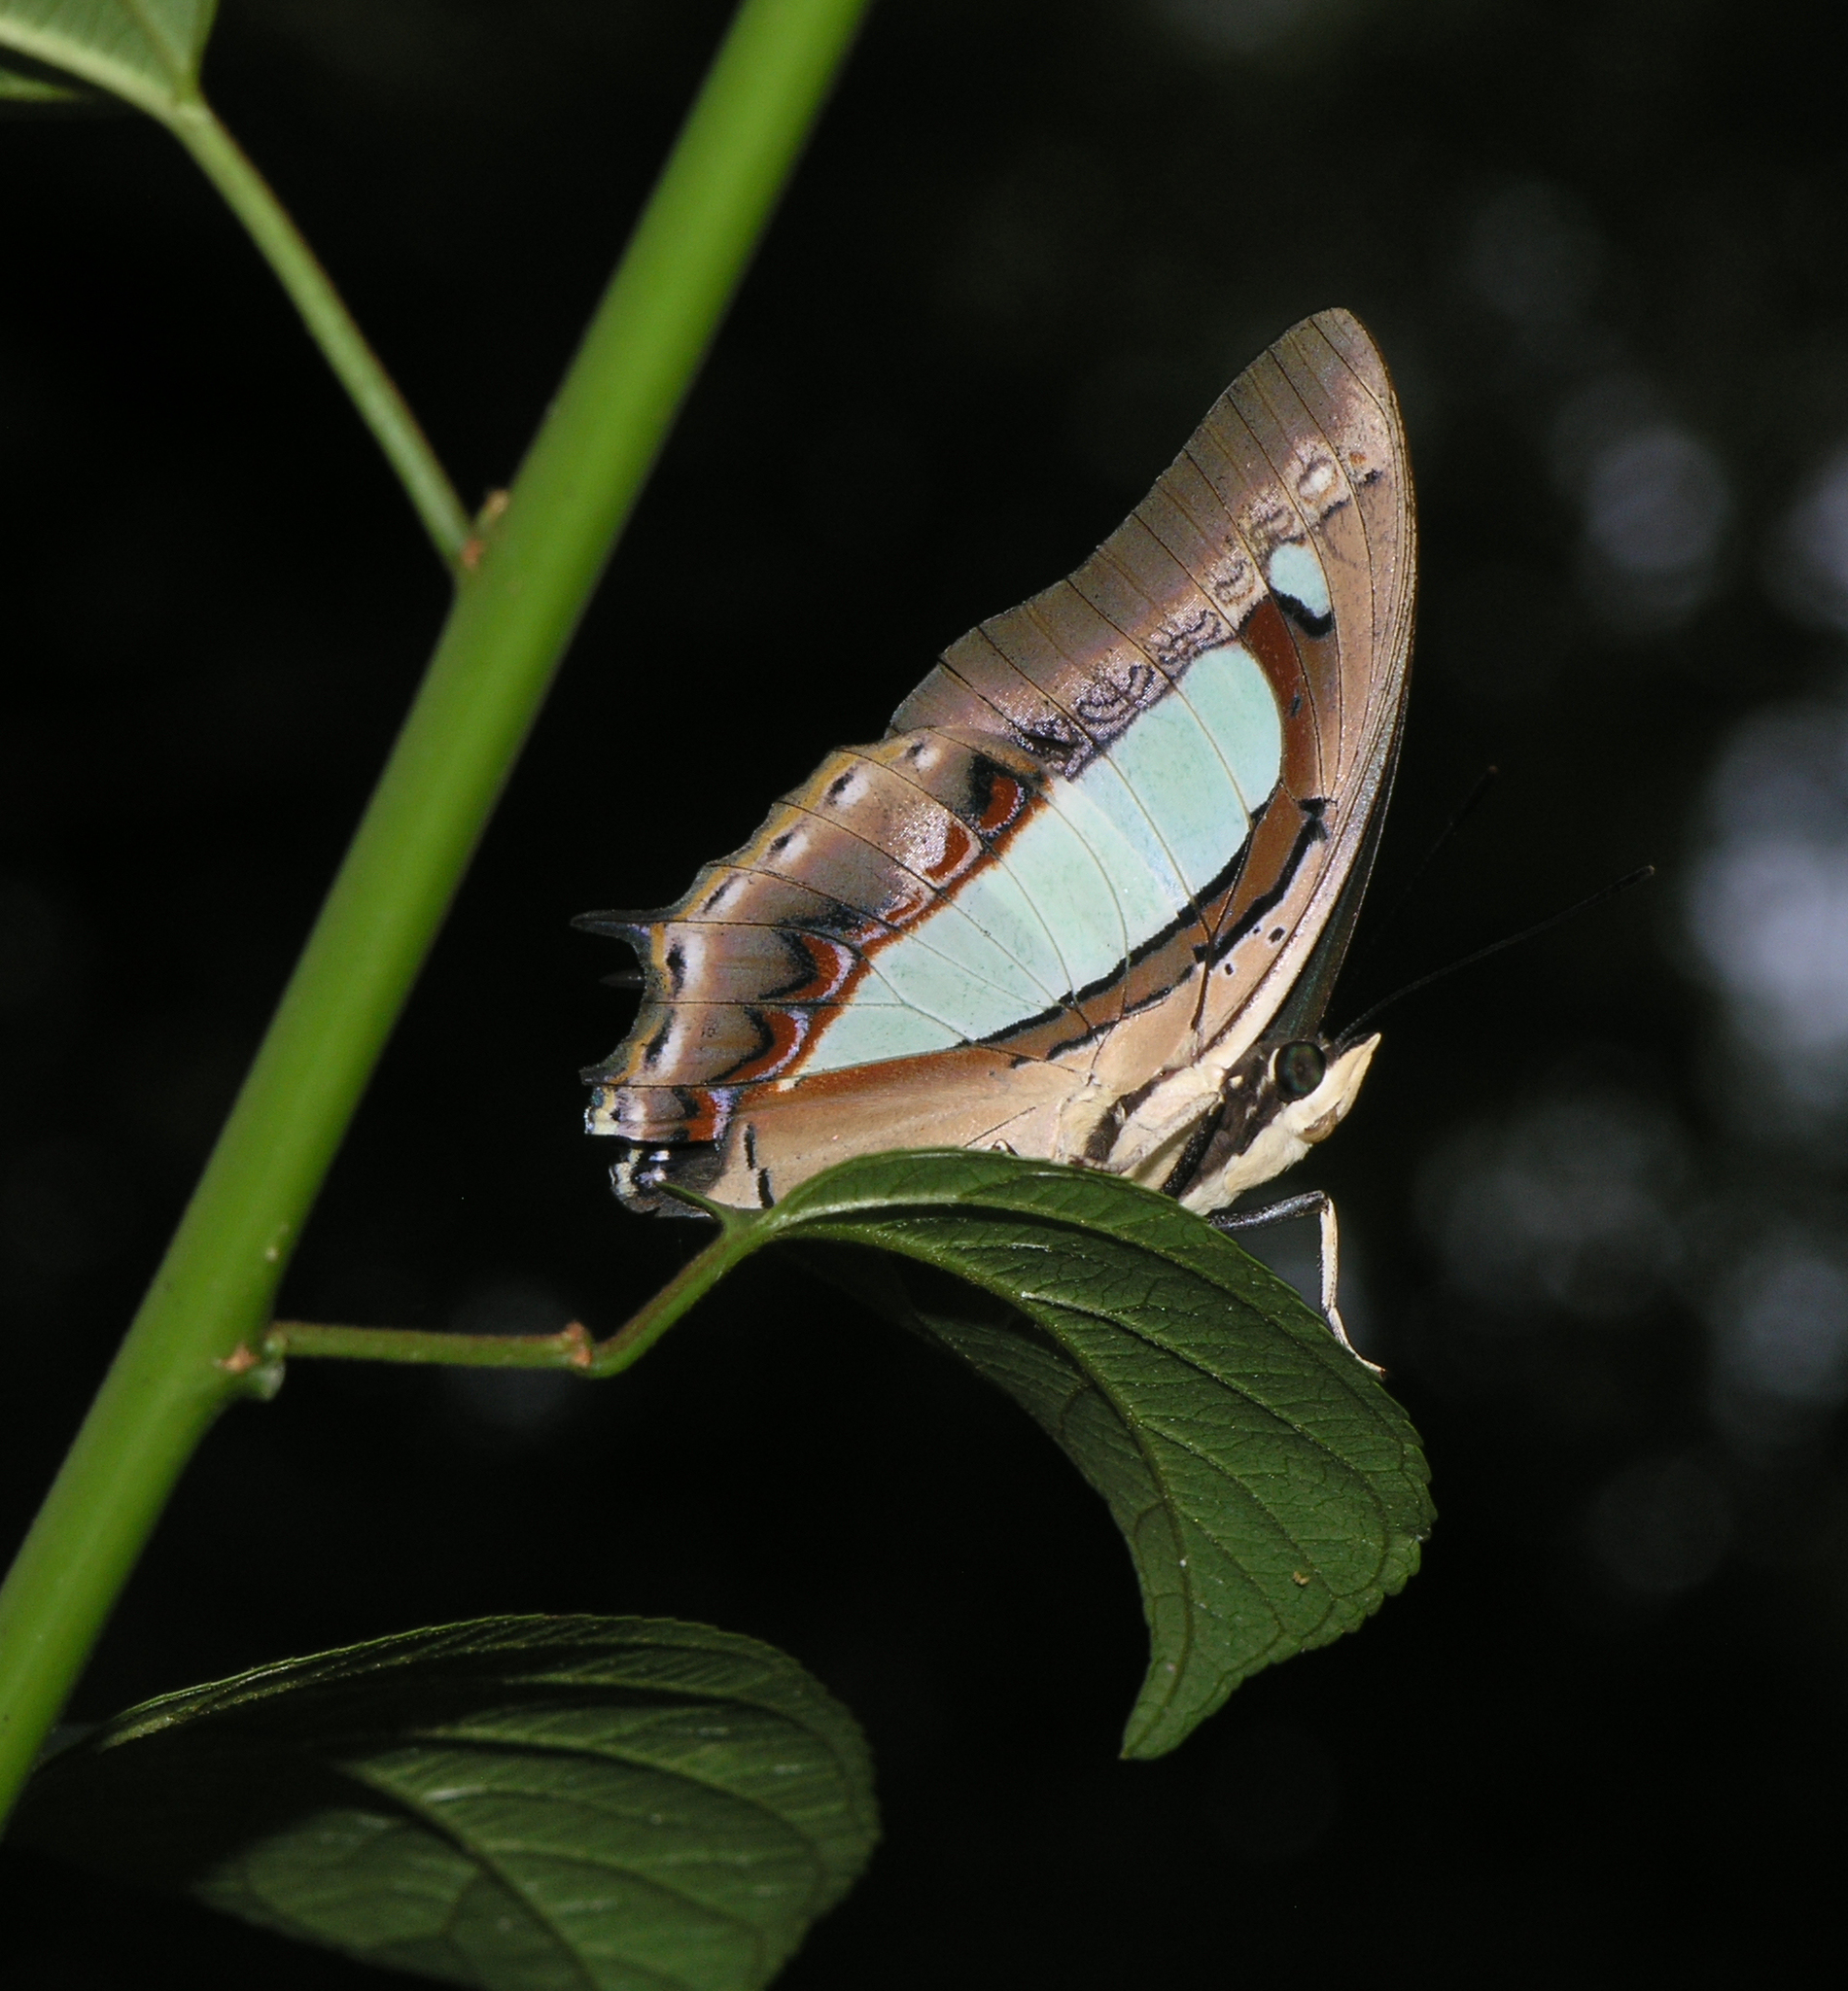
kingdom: Animalia
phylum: Arthropoda
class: Insecta
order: Lepidoptera
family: Nymphalidae
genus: Polyura
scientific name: Polyura athamas
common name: Common nawab
